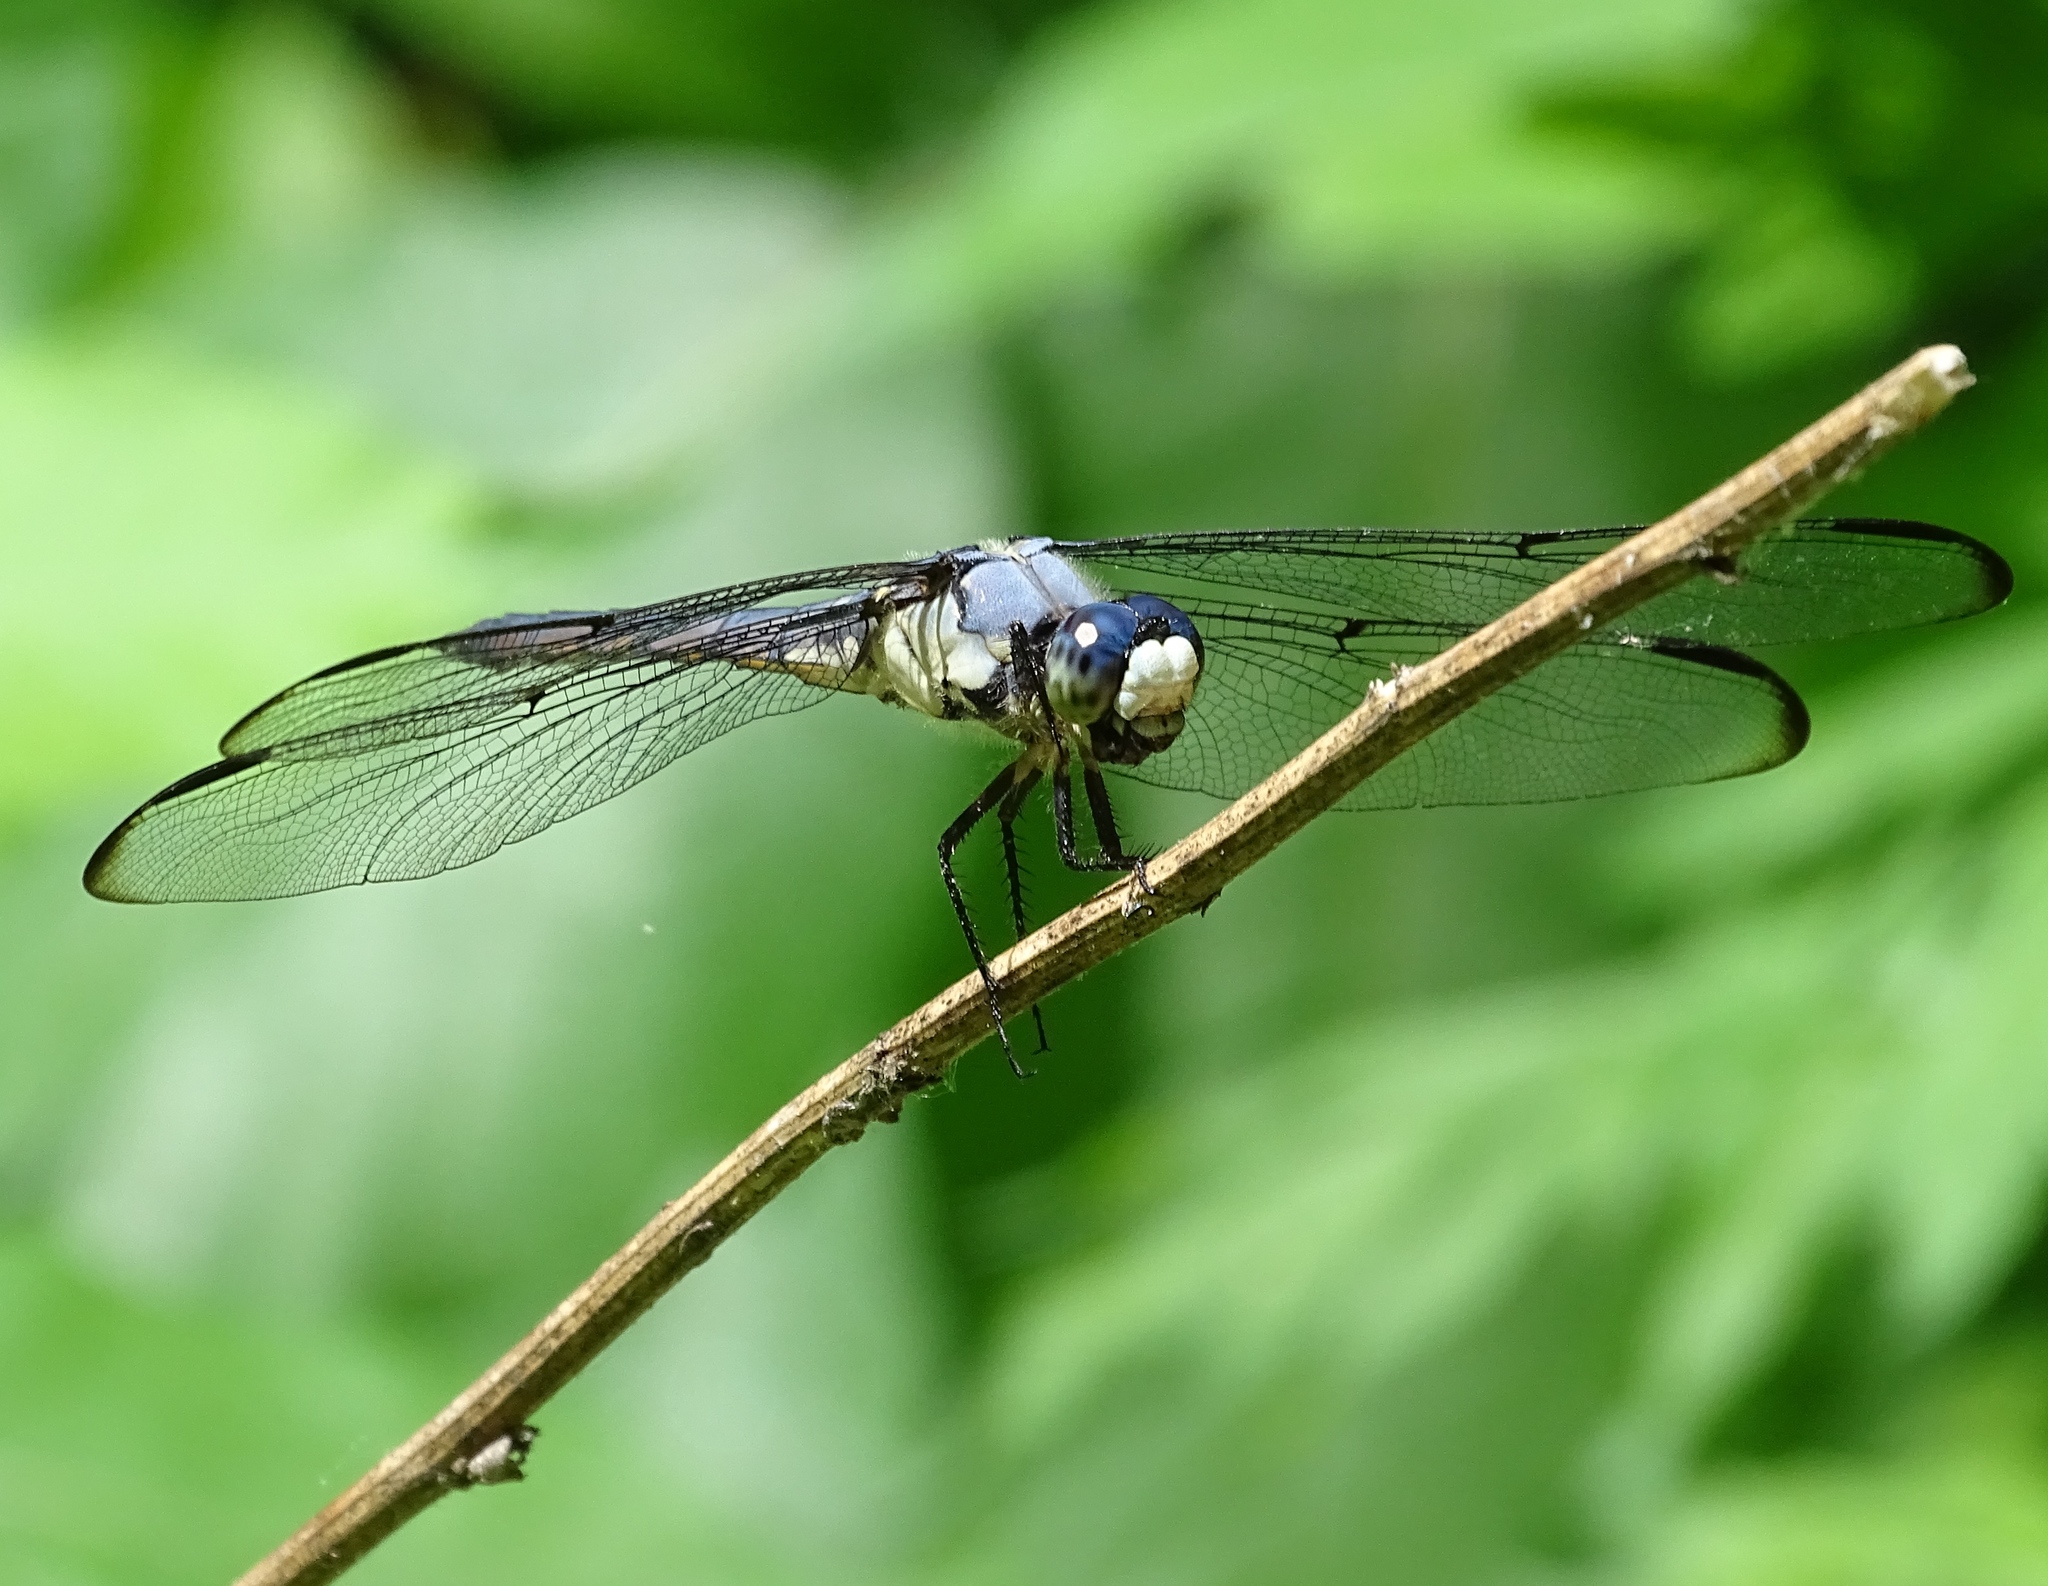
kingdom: Animalia
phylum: Arthropoda
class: Insecta
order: Odonata
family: Libellulidae
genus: Libellula
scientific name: Libellula vibrans
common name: Great blue skimmer
